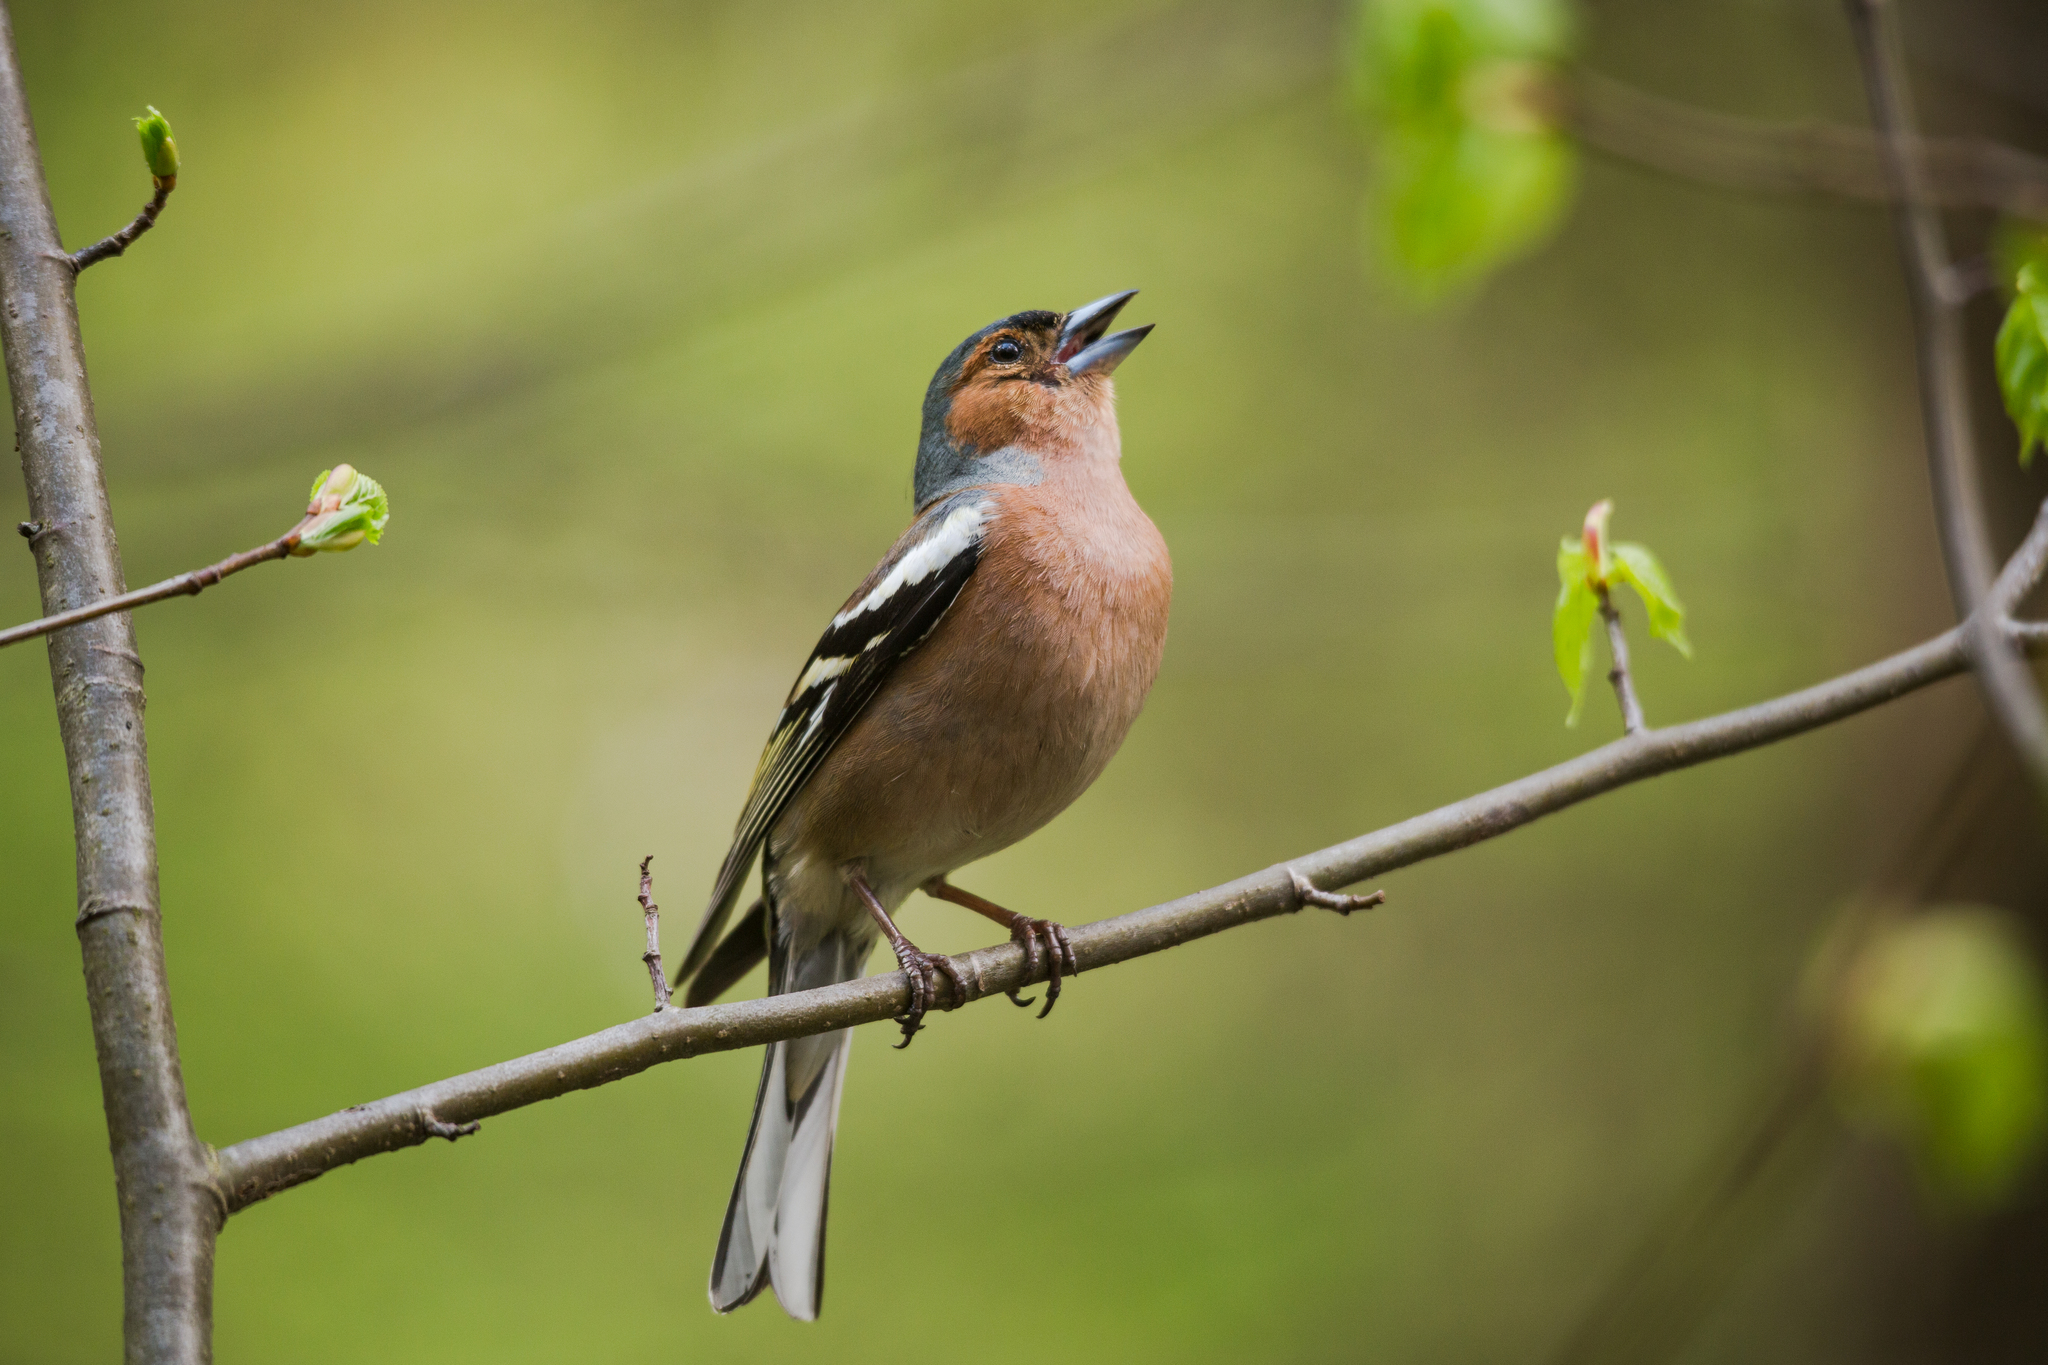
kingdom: Animalia
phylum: Chordata
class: Aves
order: Passeriformes
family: Fringillidae
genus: Fringilla
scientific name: Fringilla coelebs
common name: Common chaffinch
